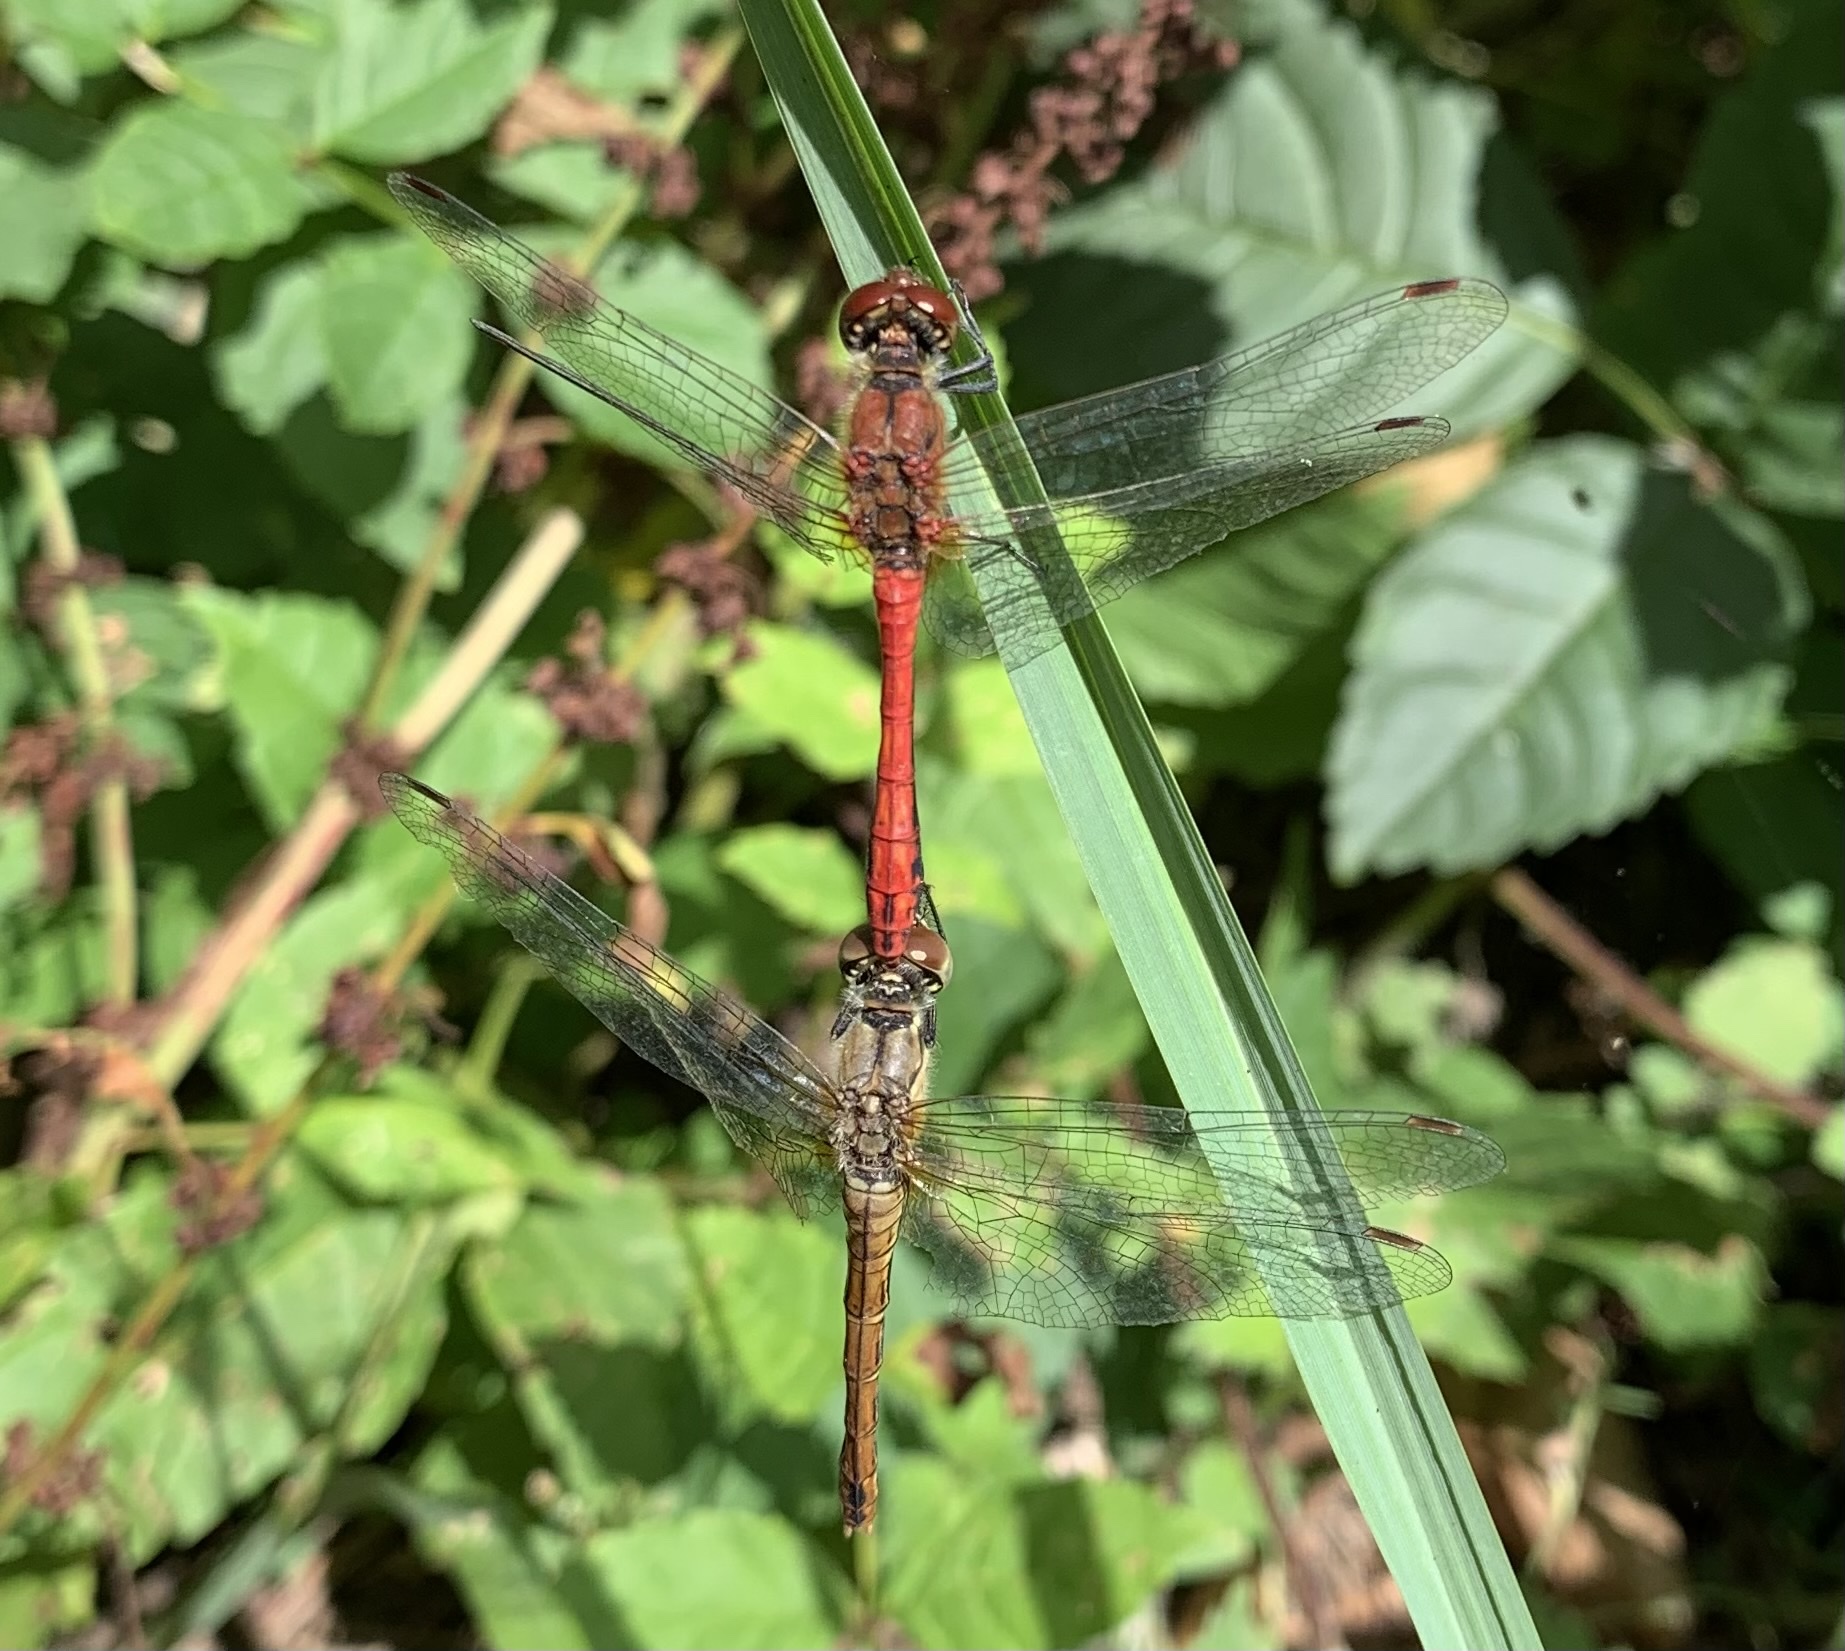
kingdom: Animalia
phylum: Arthropoda
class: Insecta
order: Odonata
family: Libellulidae
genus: Sympetrum
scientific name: Sympetrum sanguineum
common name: Ruddy darter
